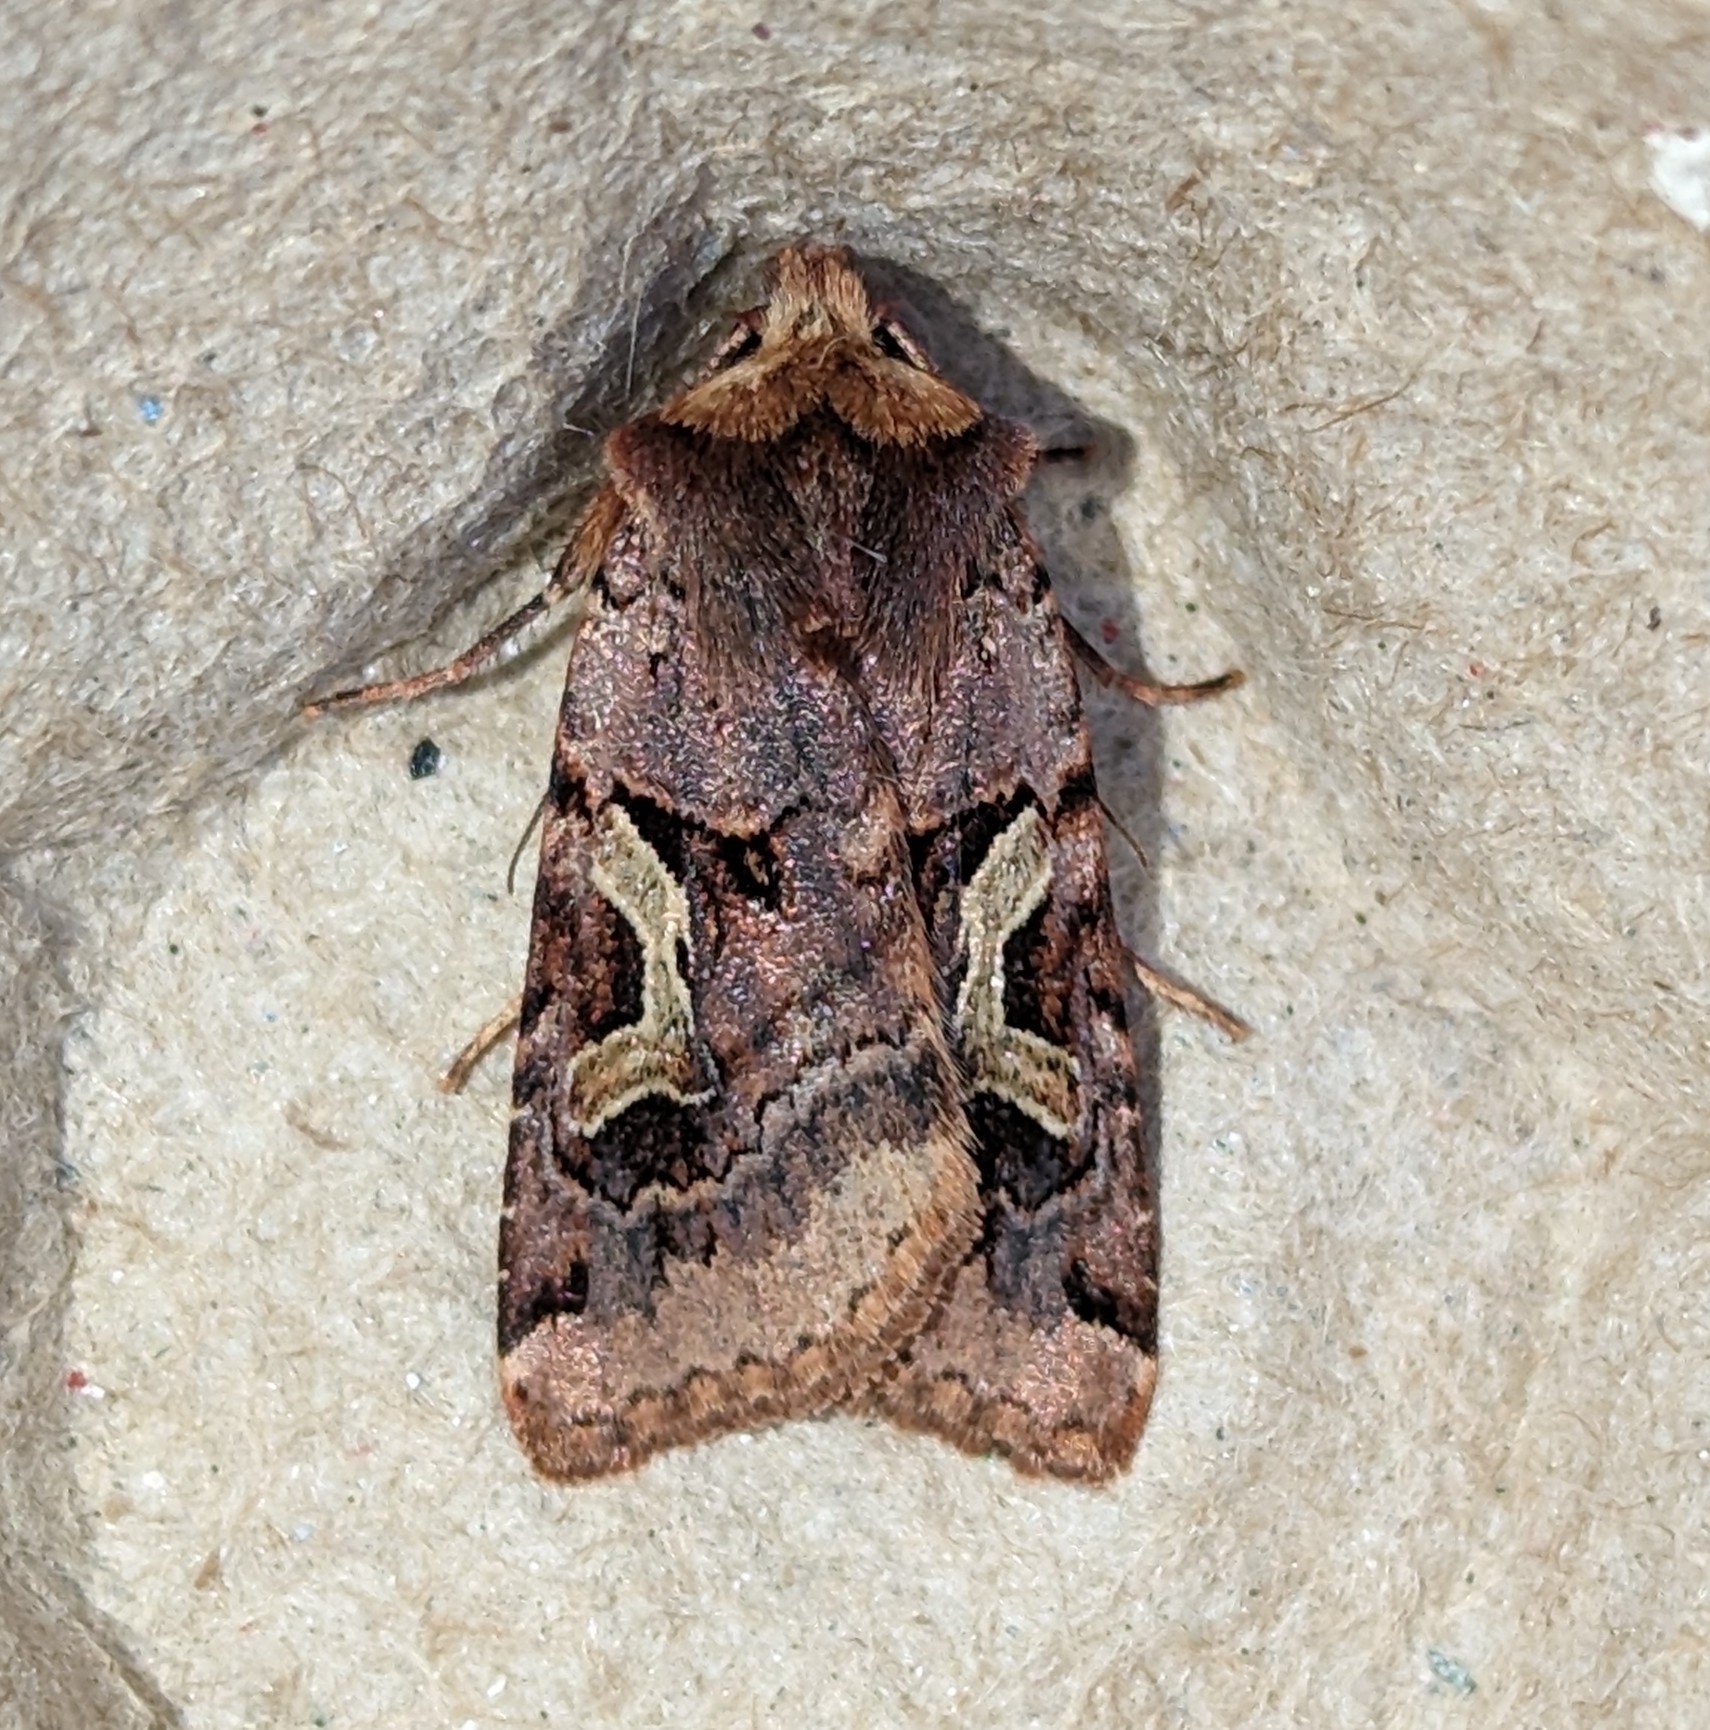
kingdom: Animalia
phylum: Arthropoda
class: Insecta
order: Lepidoptera
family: Noctuidae
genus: Cerastis
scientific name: Cerastis enigmatica
